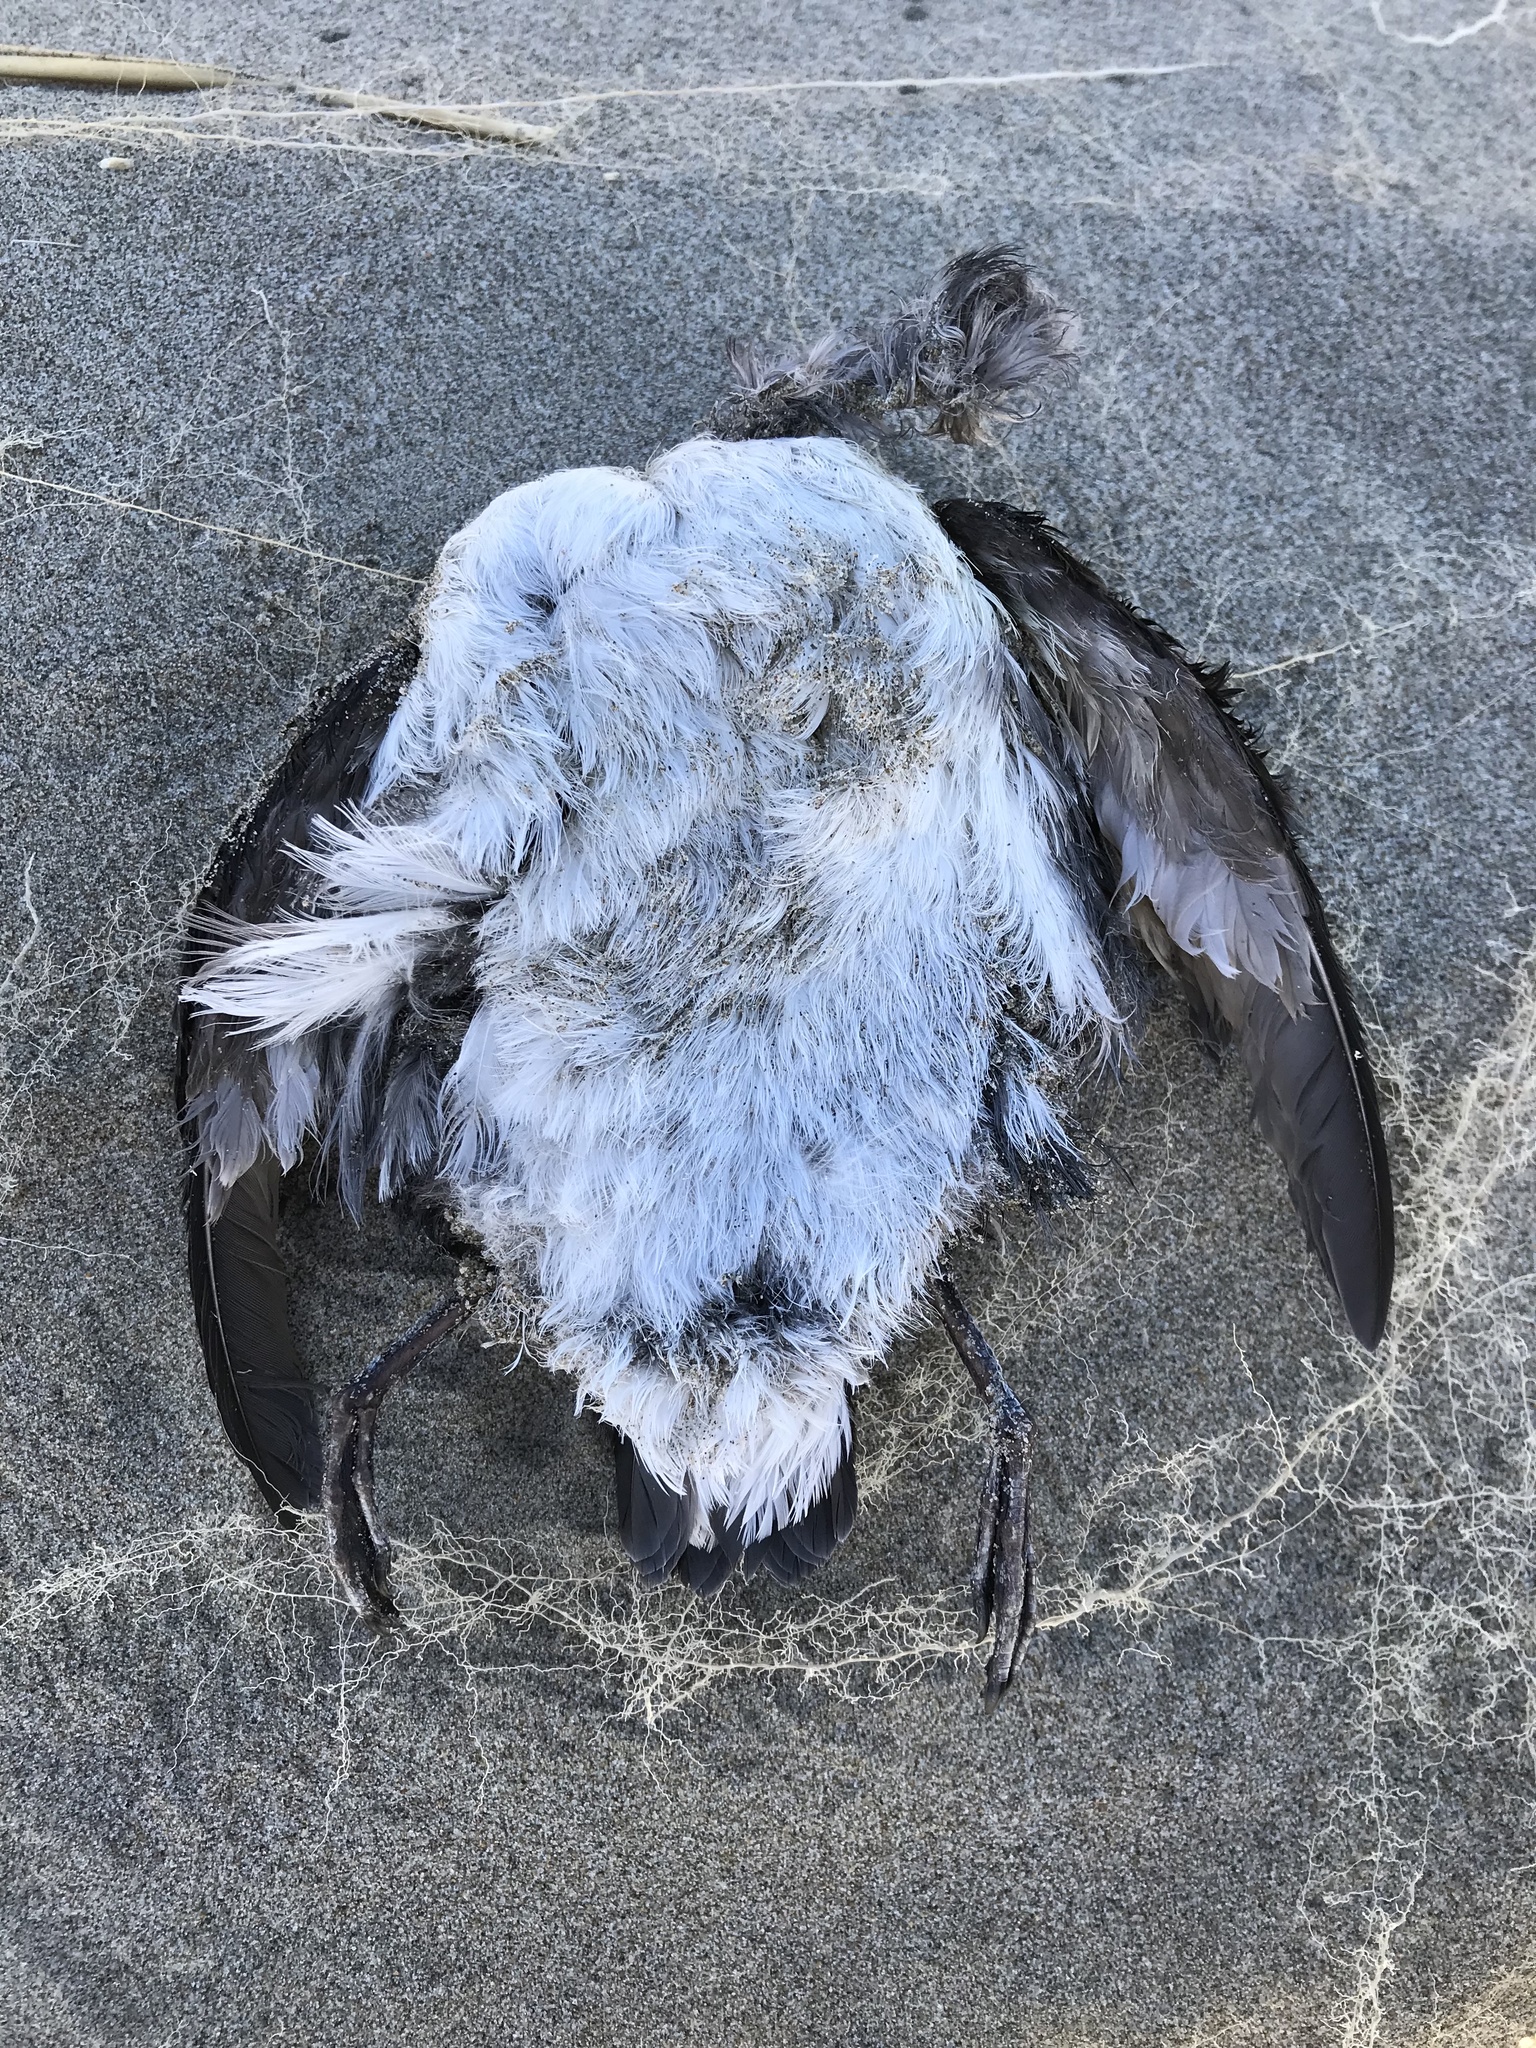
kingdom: Animalia
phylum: Chordata
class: Aves
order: Charadriiformes
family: Alcidae
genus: Ptychoramphus
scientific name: Ptychoramphus aleuticus
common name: Cassin's auklet
